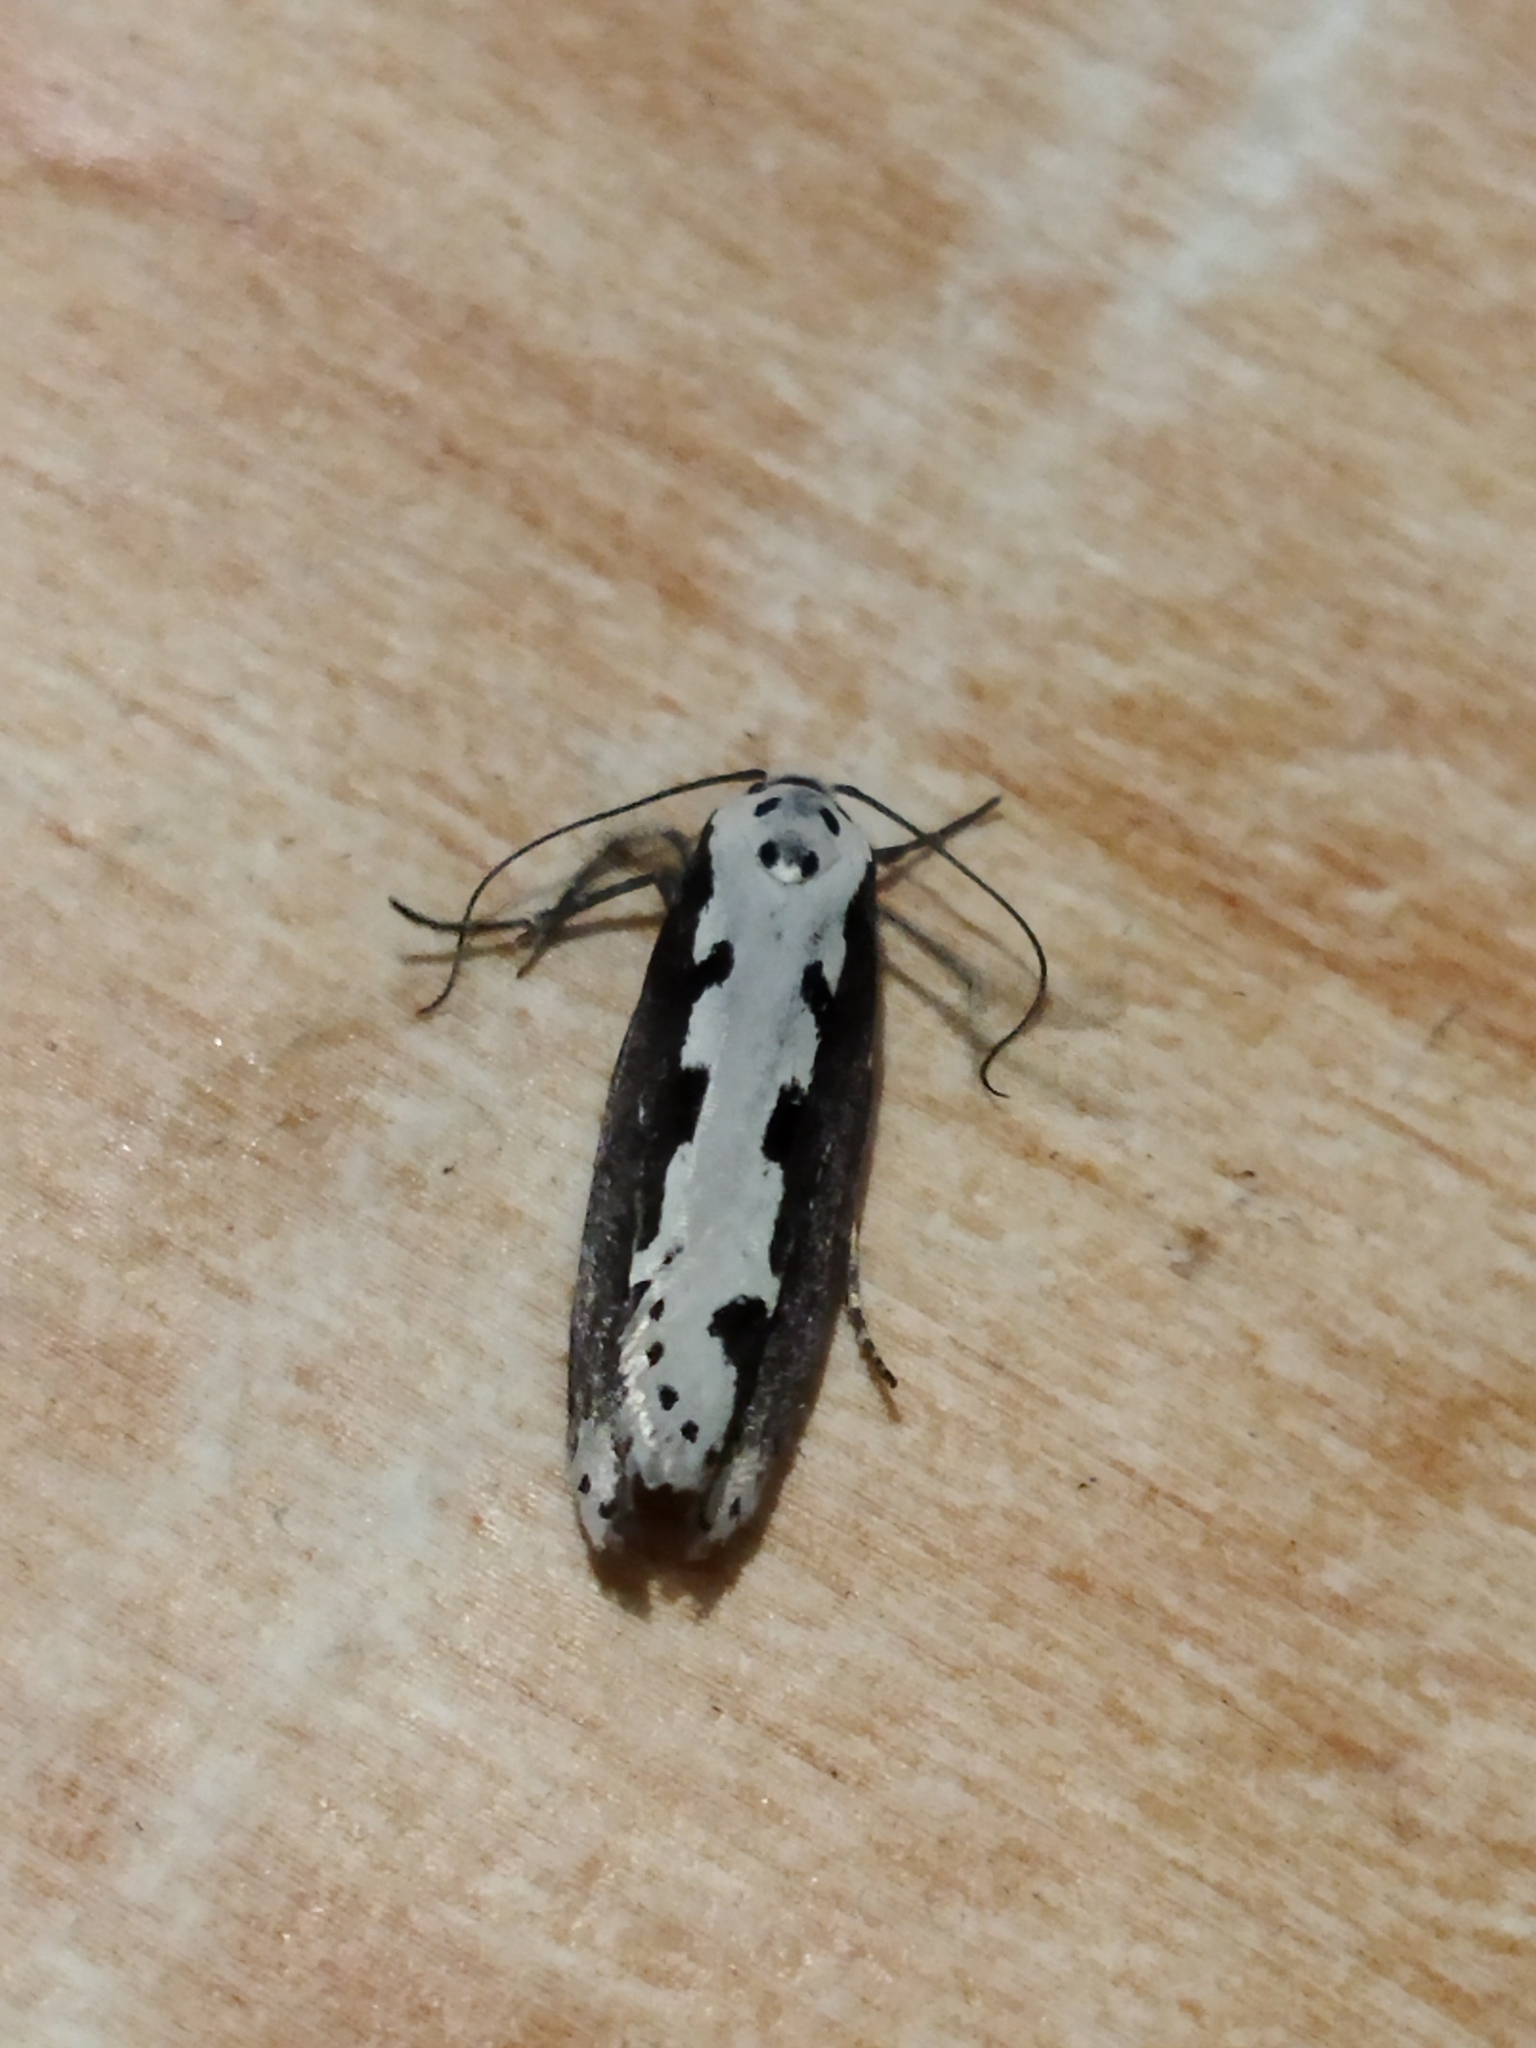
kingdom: Animalia
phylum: Arthropoda
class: Insecta
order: Lepidoptera
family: Ethmiidae
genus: Ethmia
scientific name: Ethmia bipunctella
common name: Bordered ermel
